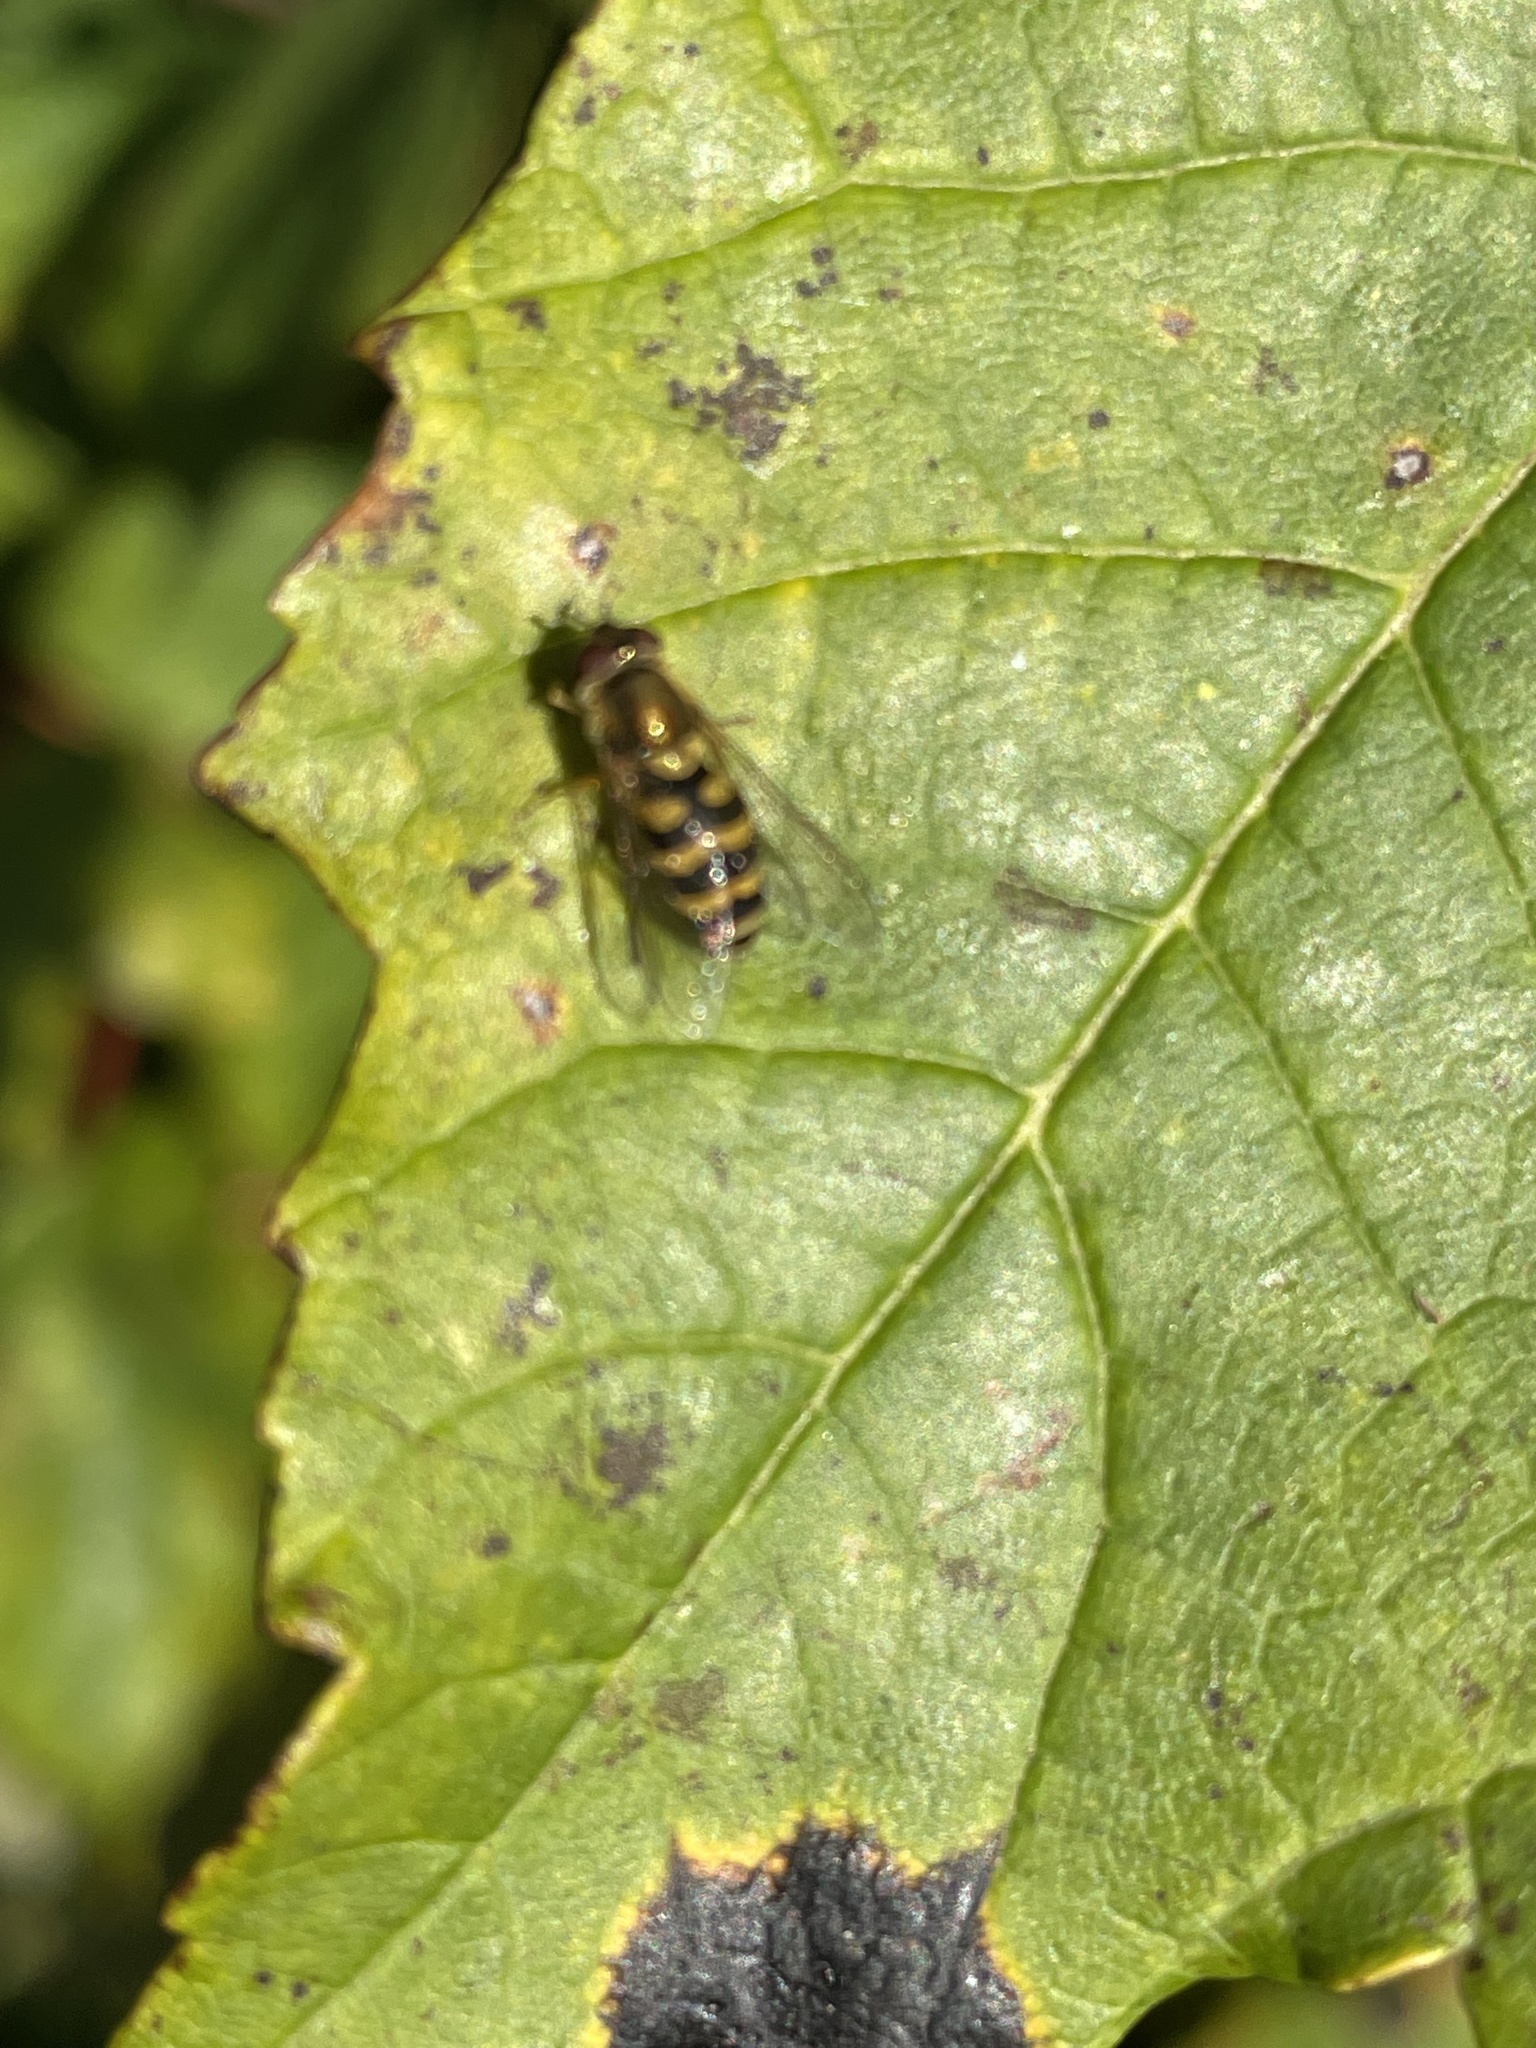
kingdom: Animalia
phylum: Arthropoda
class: Insecta
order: Diptera
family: Syrphidae
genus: Syrphus
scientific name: Syrphus
